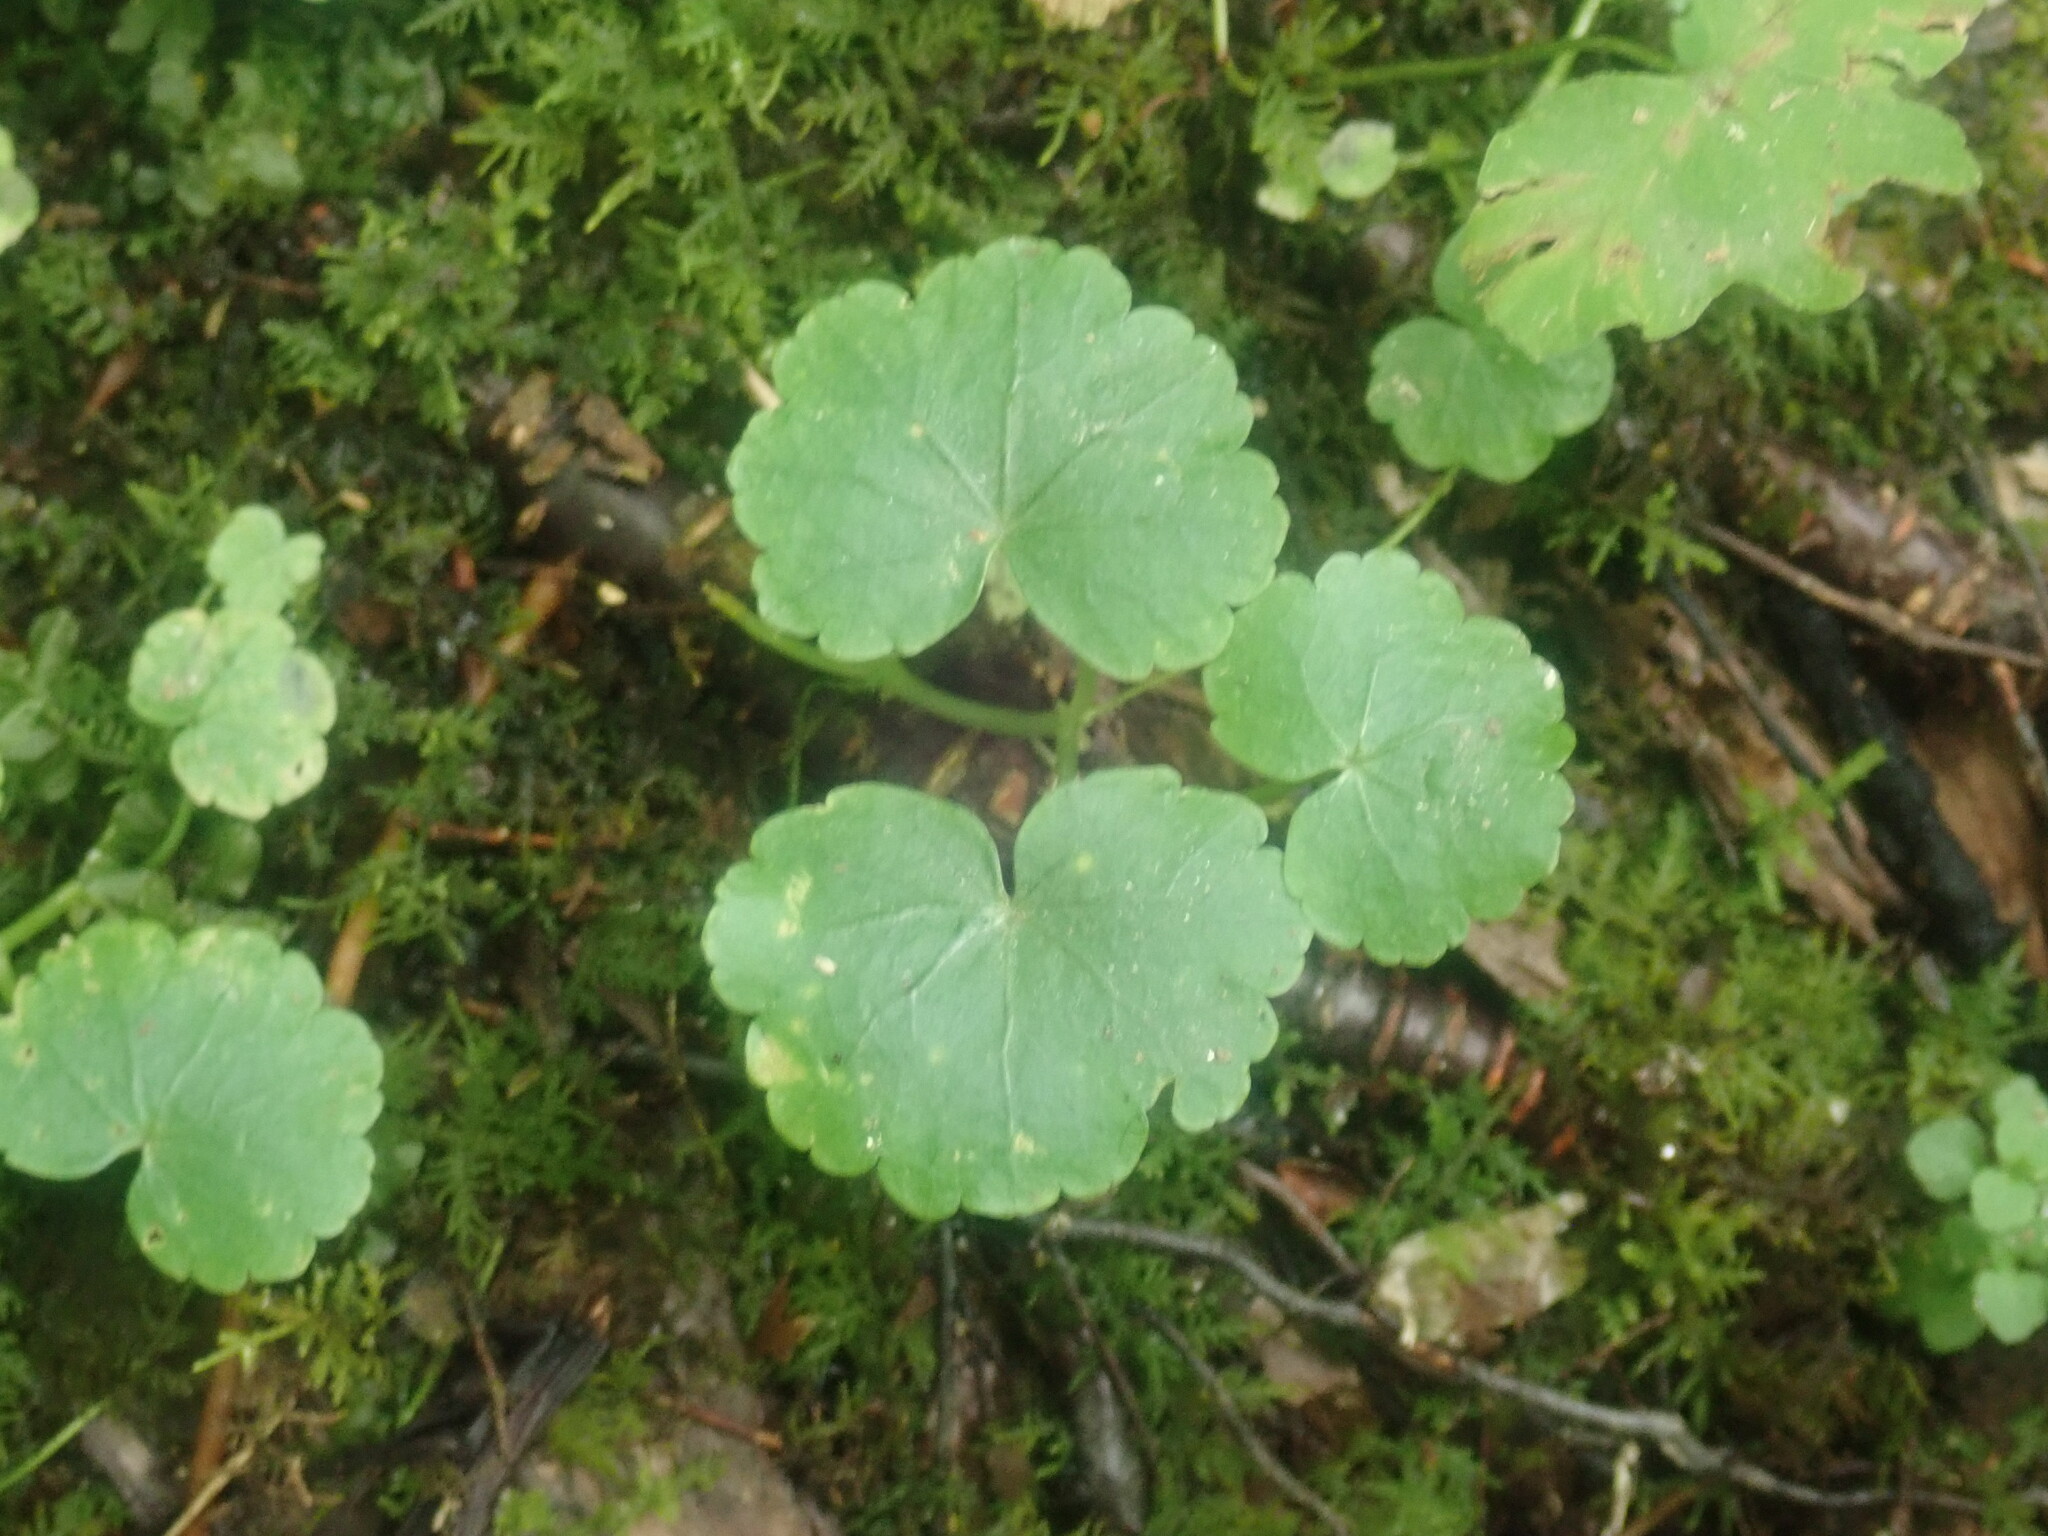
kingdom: Plantae
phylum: Tracheophyta
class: Magnoliopsida
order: Apiales
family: Araliaceae
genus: Hydrocotyle
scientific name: Hydrocotyle americana
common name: American water-pennywort
